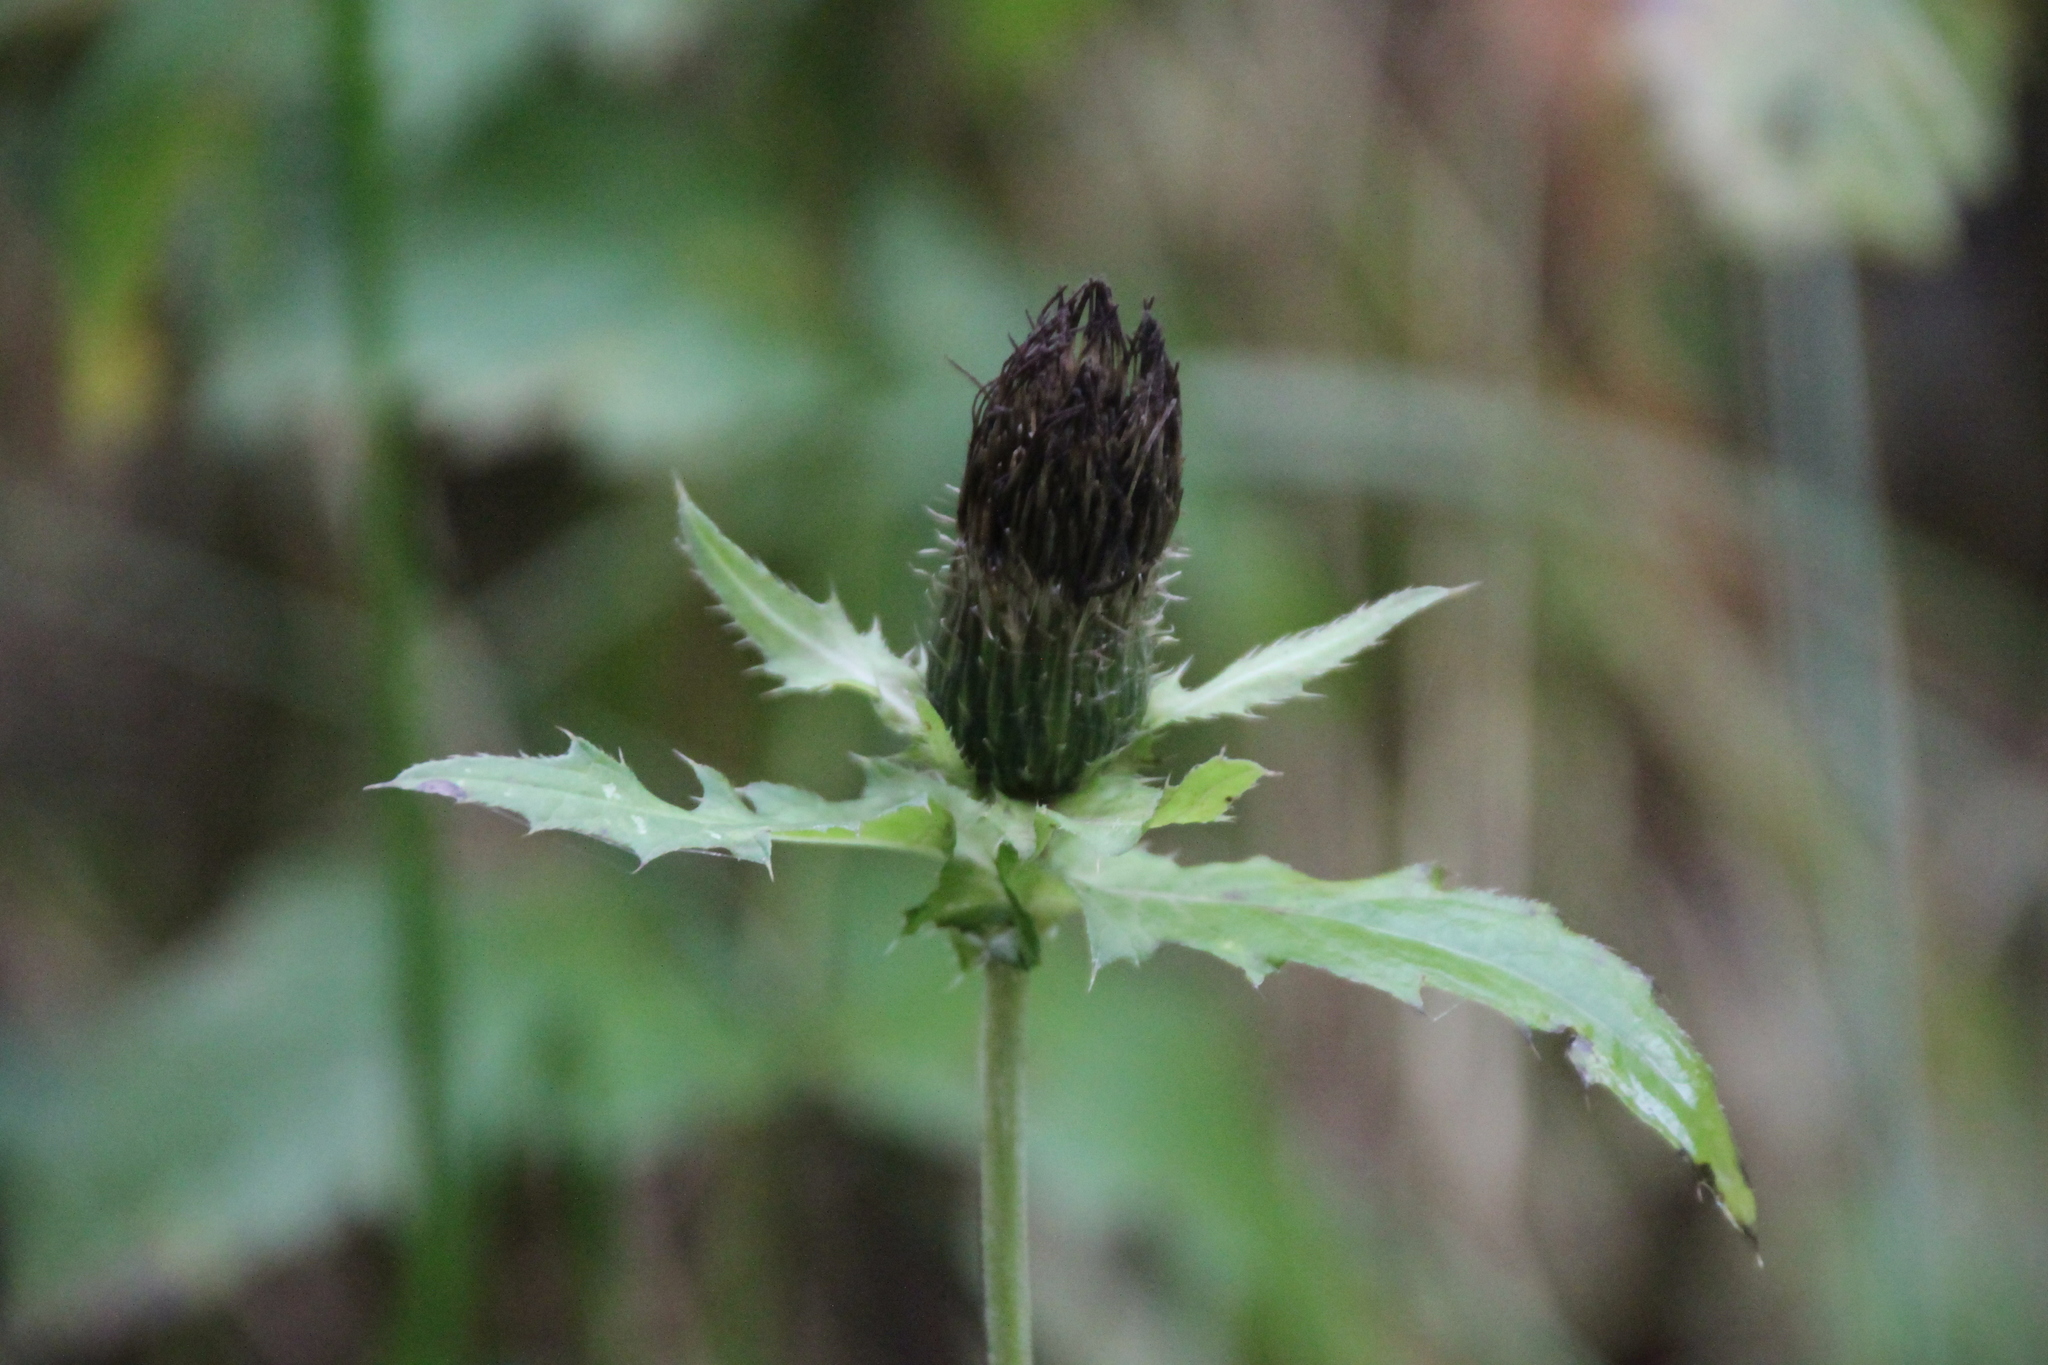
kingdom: Plantae
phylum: Tracheophyta
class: Magnoliopsida
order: Asterales
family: Asteraceae
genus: Cirsium
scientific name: Cirsium oleraceum
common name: Cabbage thistle
